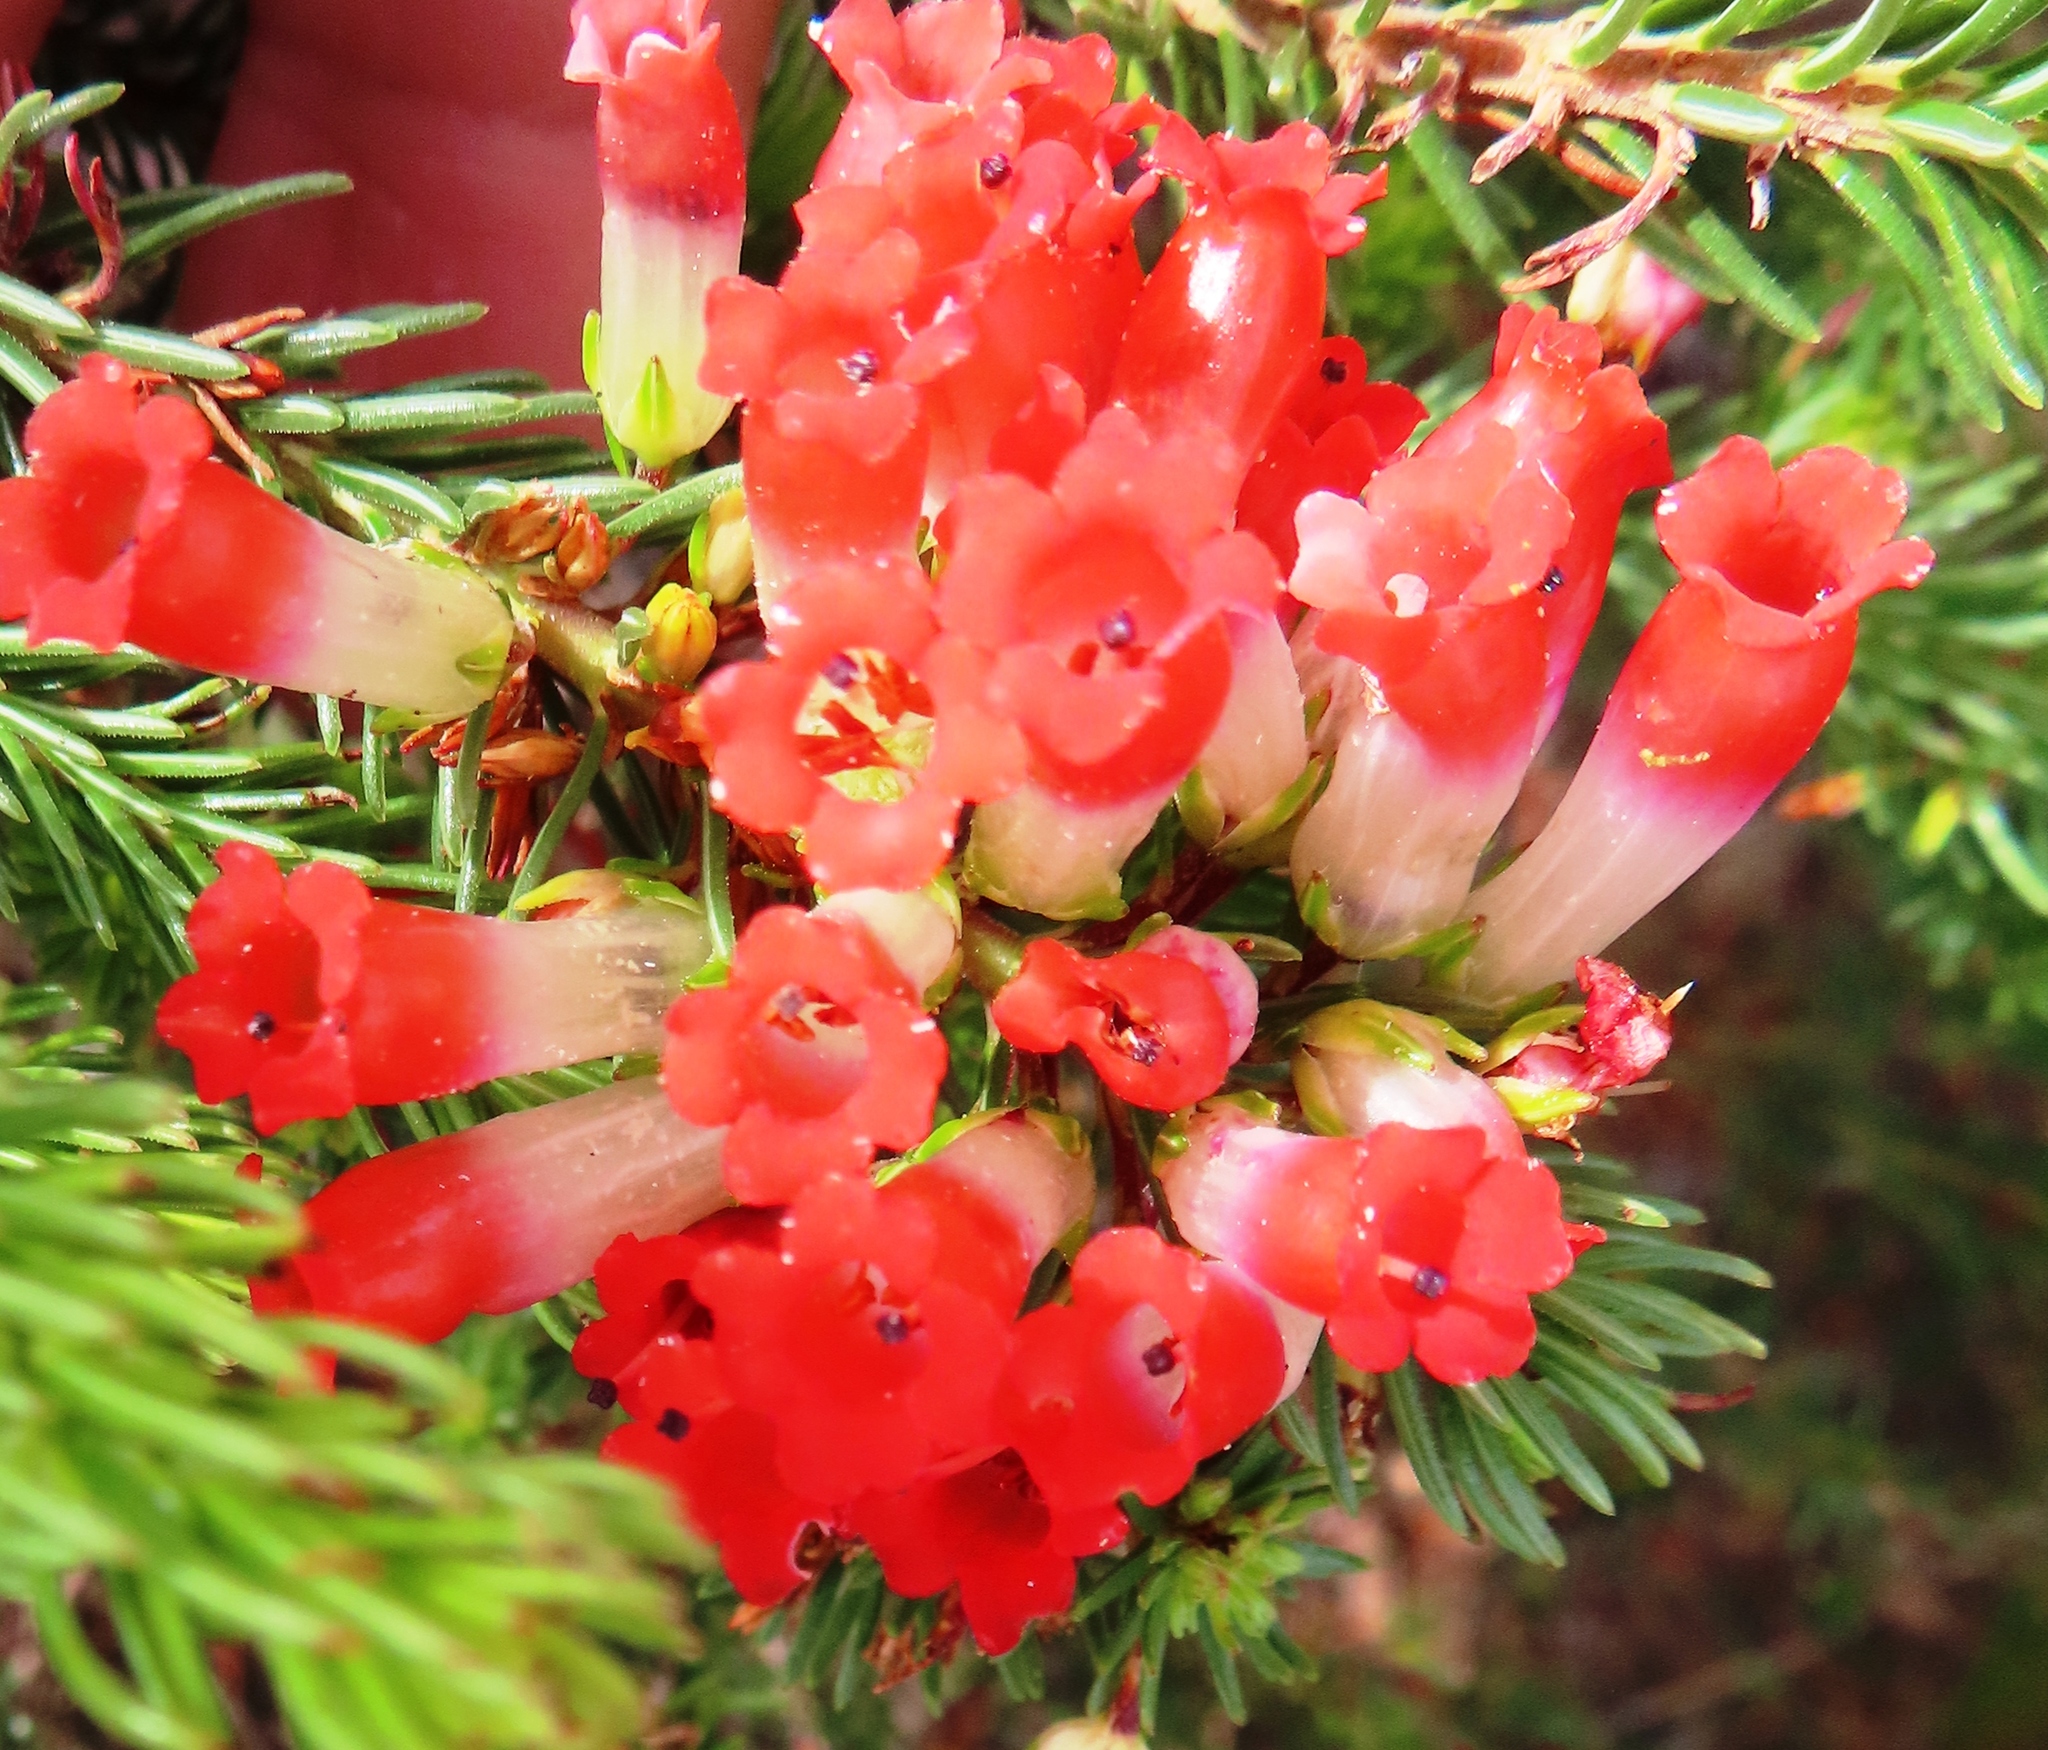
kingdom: Plantae
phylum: Tracheophyta
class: Magnoliopsida
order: Ericales
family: Ericaceae
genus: Erica
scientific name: Erica regia
